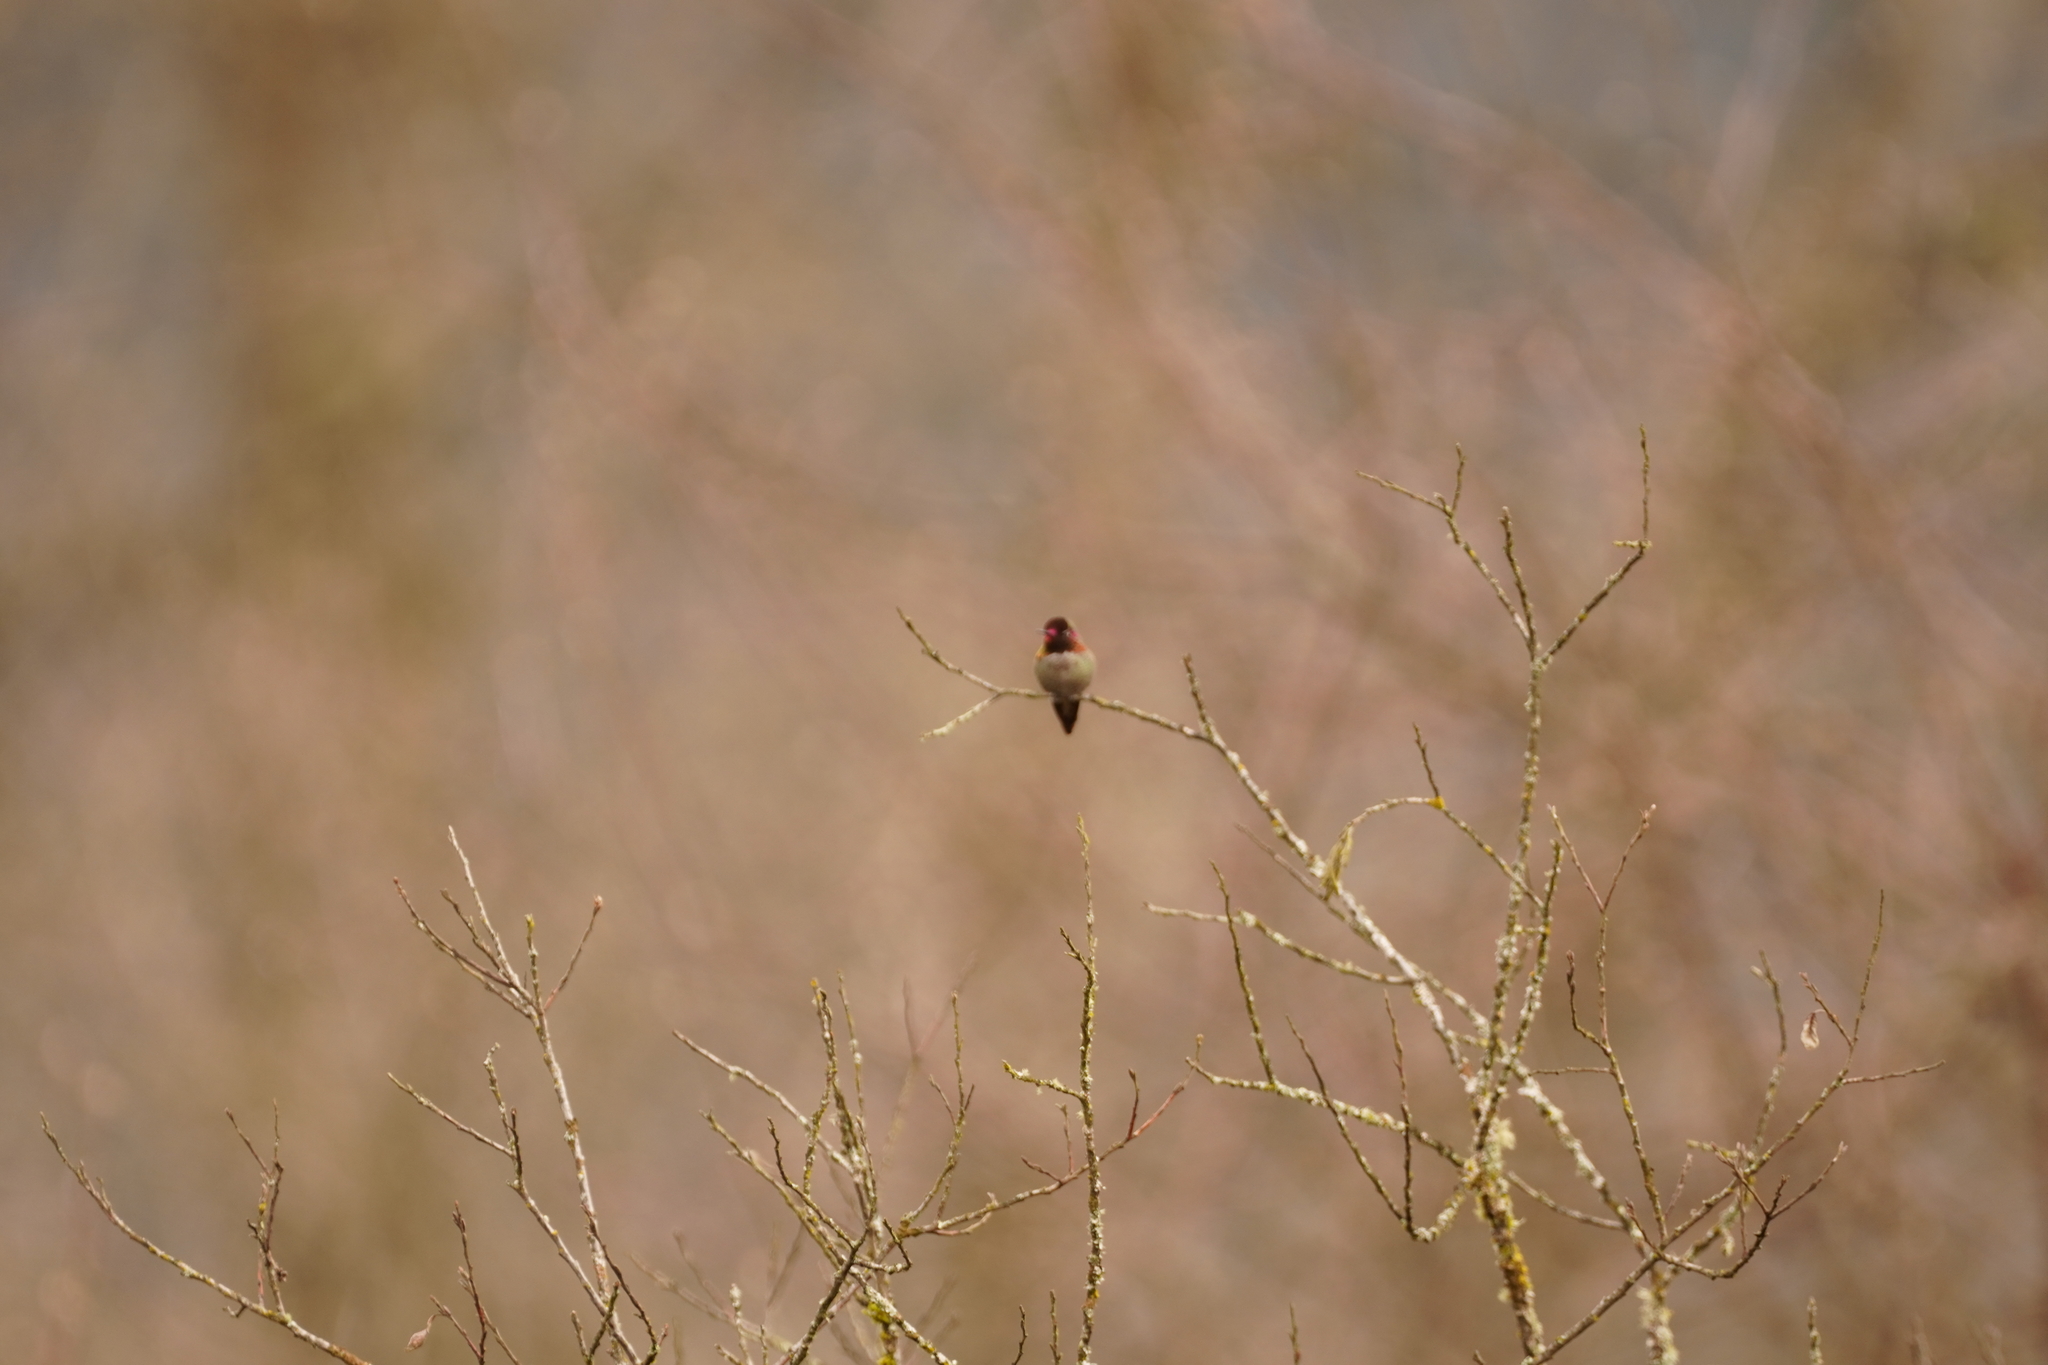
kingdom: Animalia
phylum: Chordata
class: Aves
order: Apodiformes
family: Trochilidae
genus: Calypte
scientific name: Calypte anna
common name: Anna's hummingbird
